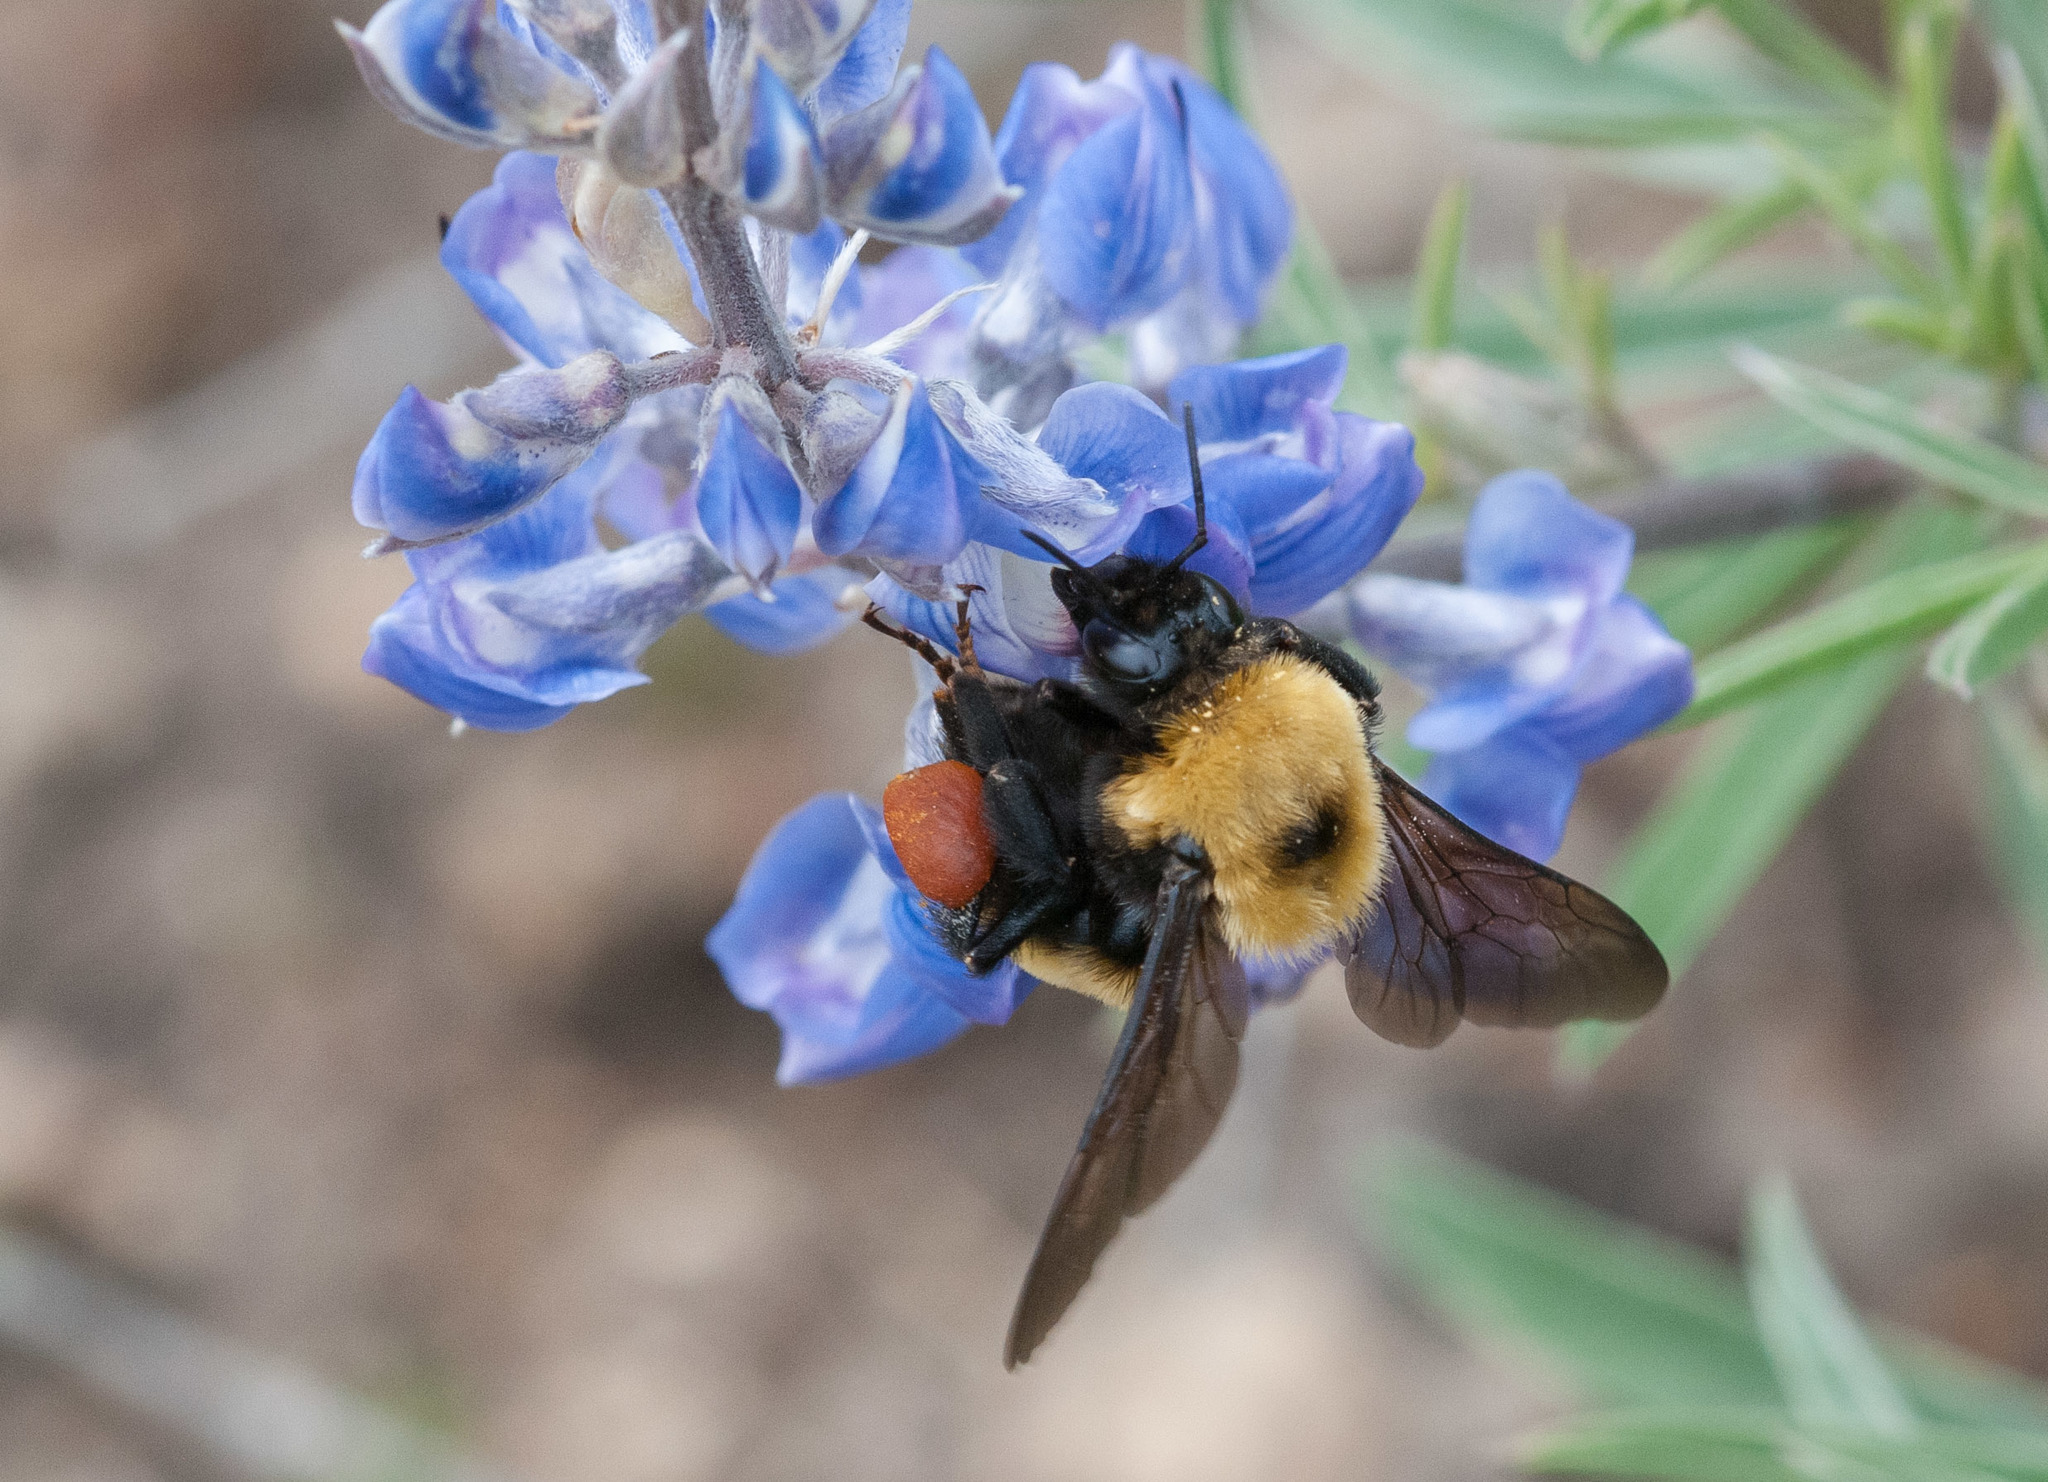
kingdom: Animalia
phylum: Arthropoda
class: Insecta
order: Hymenoptera
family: Apidae
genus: Bombus
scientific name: Bombus nevadensis
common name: Nevada bumble bee
